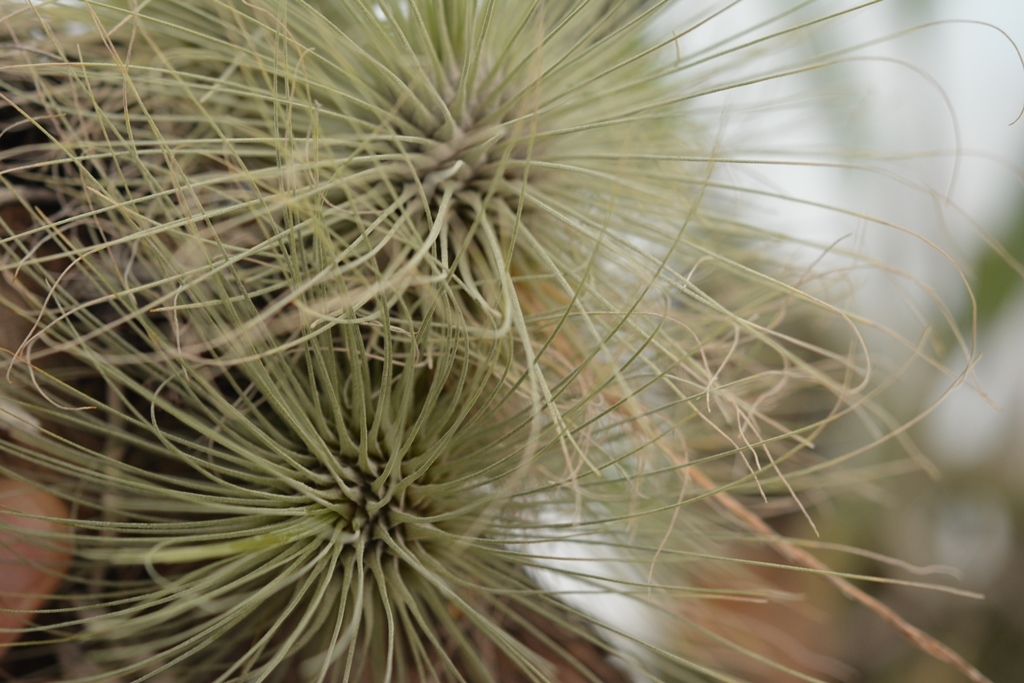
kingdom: Plantae
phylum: Tracheophyta
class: Liliopsida
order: Poales
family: Bromeliaceae
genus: Tillandsia
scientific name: Tillandsia fuchsii
